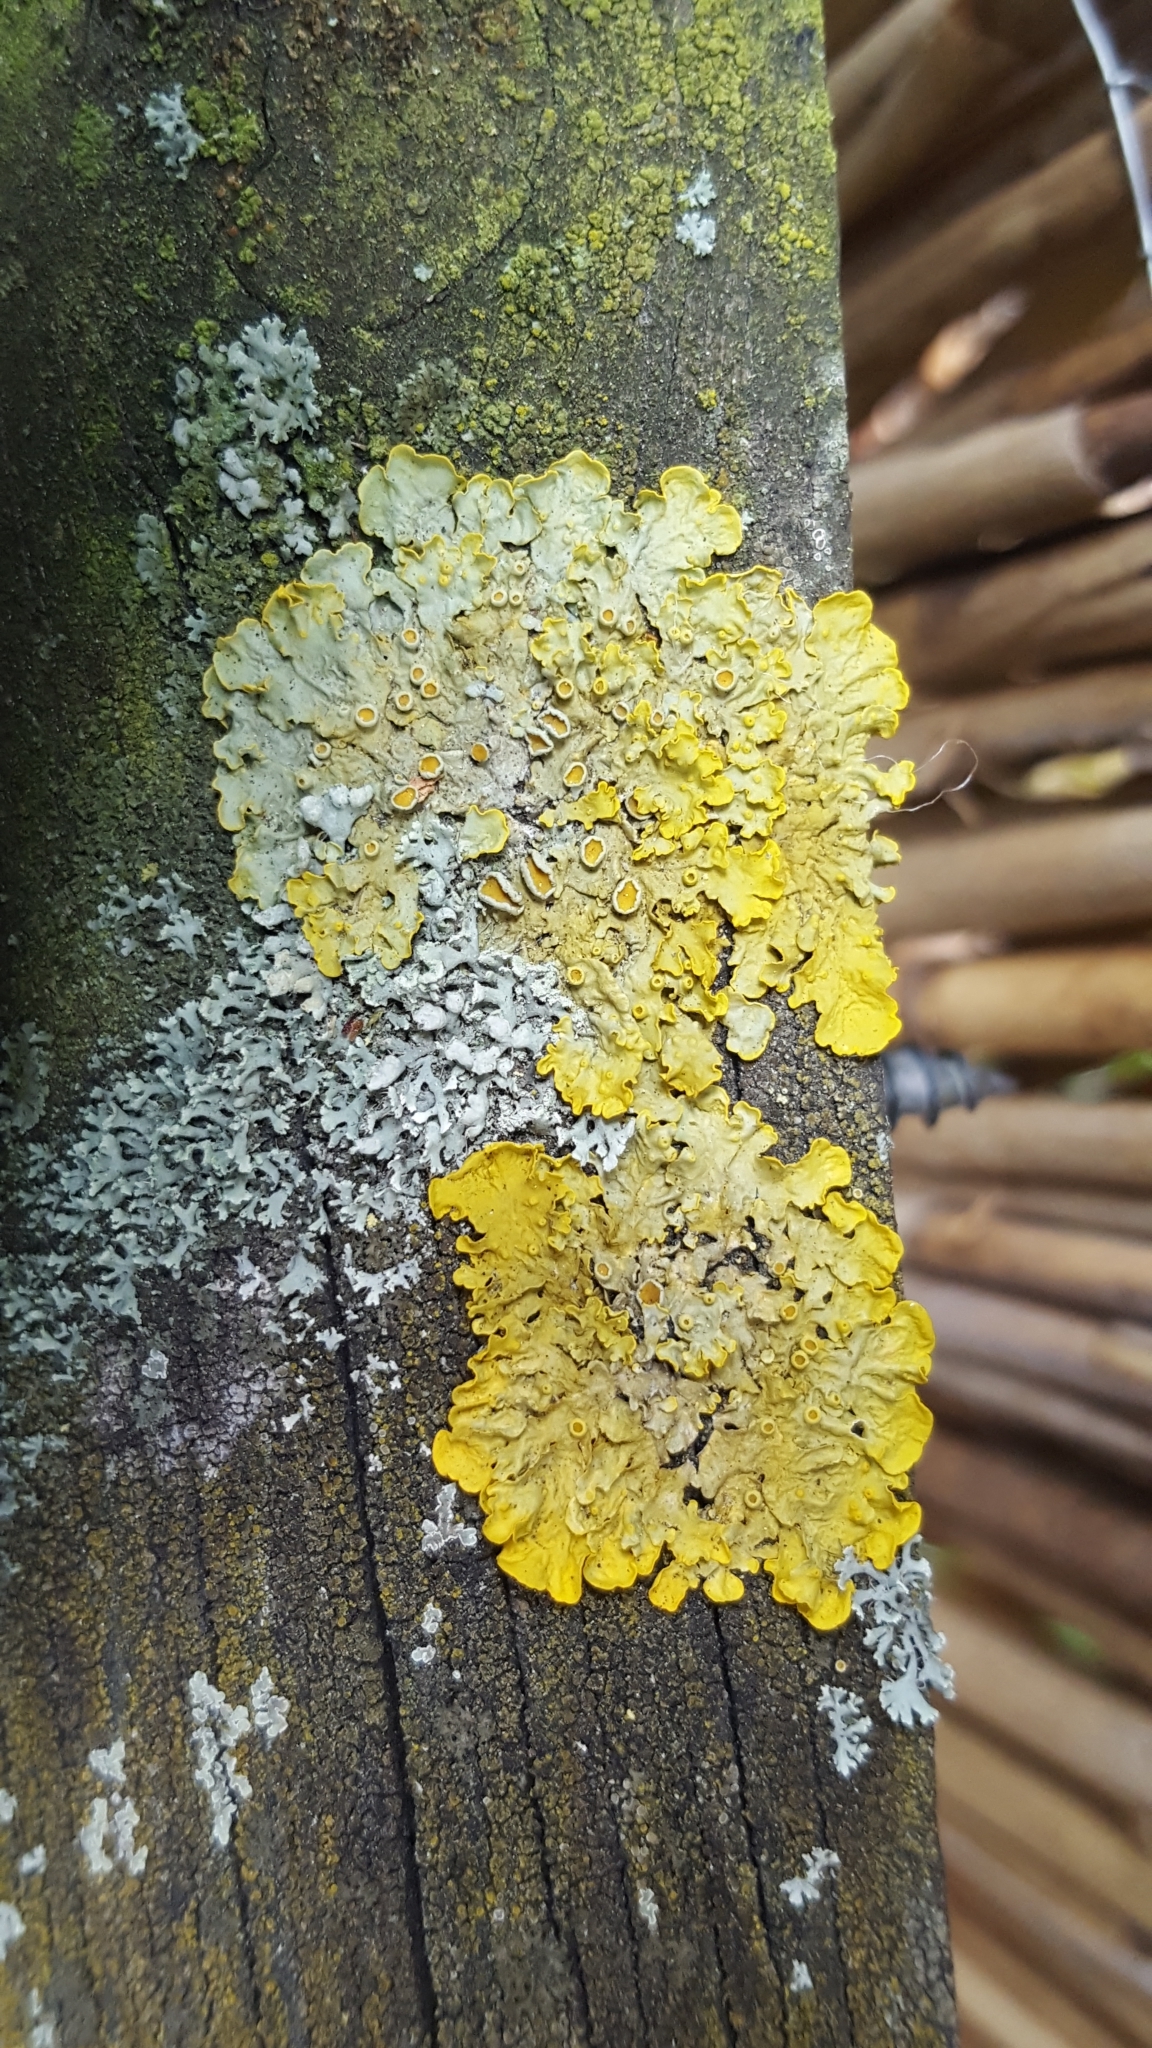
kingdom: Fungi
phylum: Ascomycota
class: Lecanoromycetes
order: Teloschistales
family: Teloschistaceae
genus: Xanthoria
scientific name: Xanthoria parietina
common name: Common orange lichen
